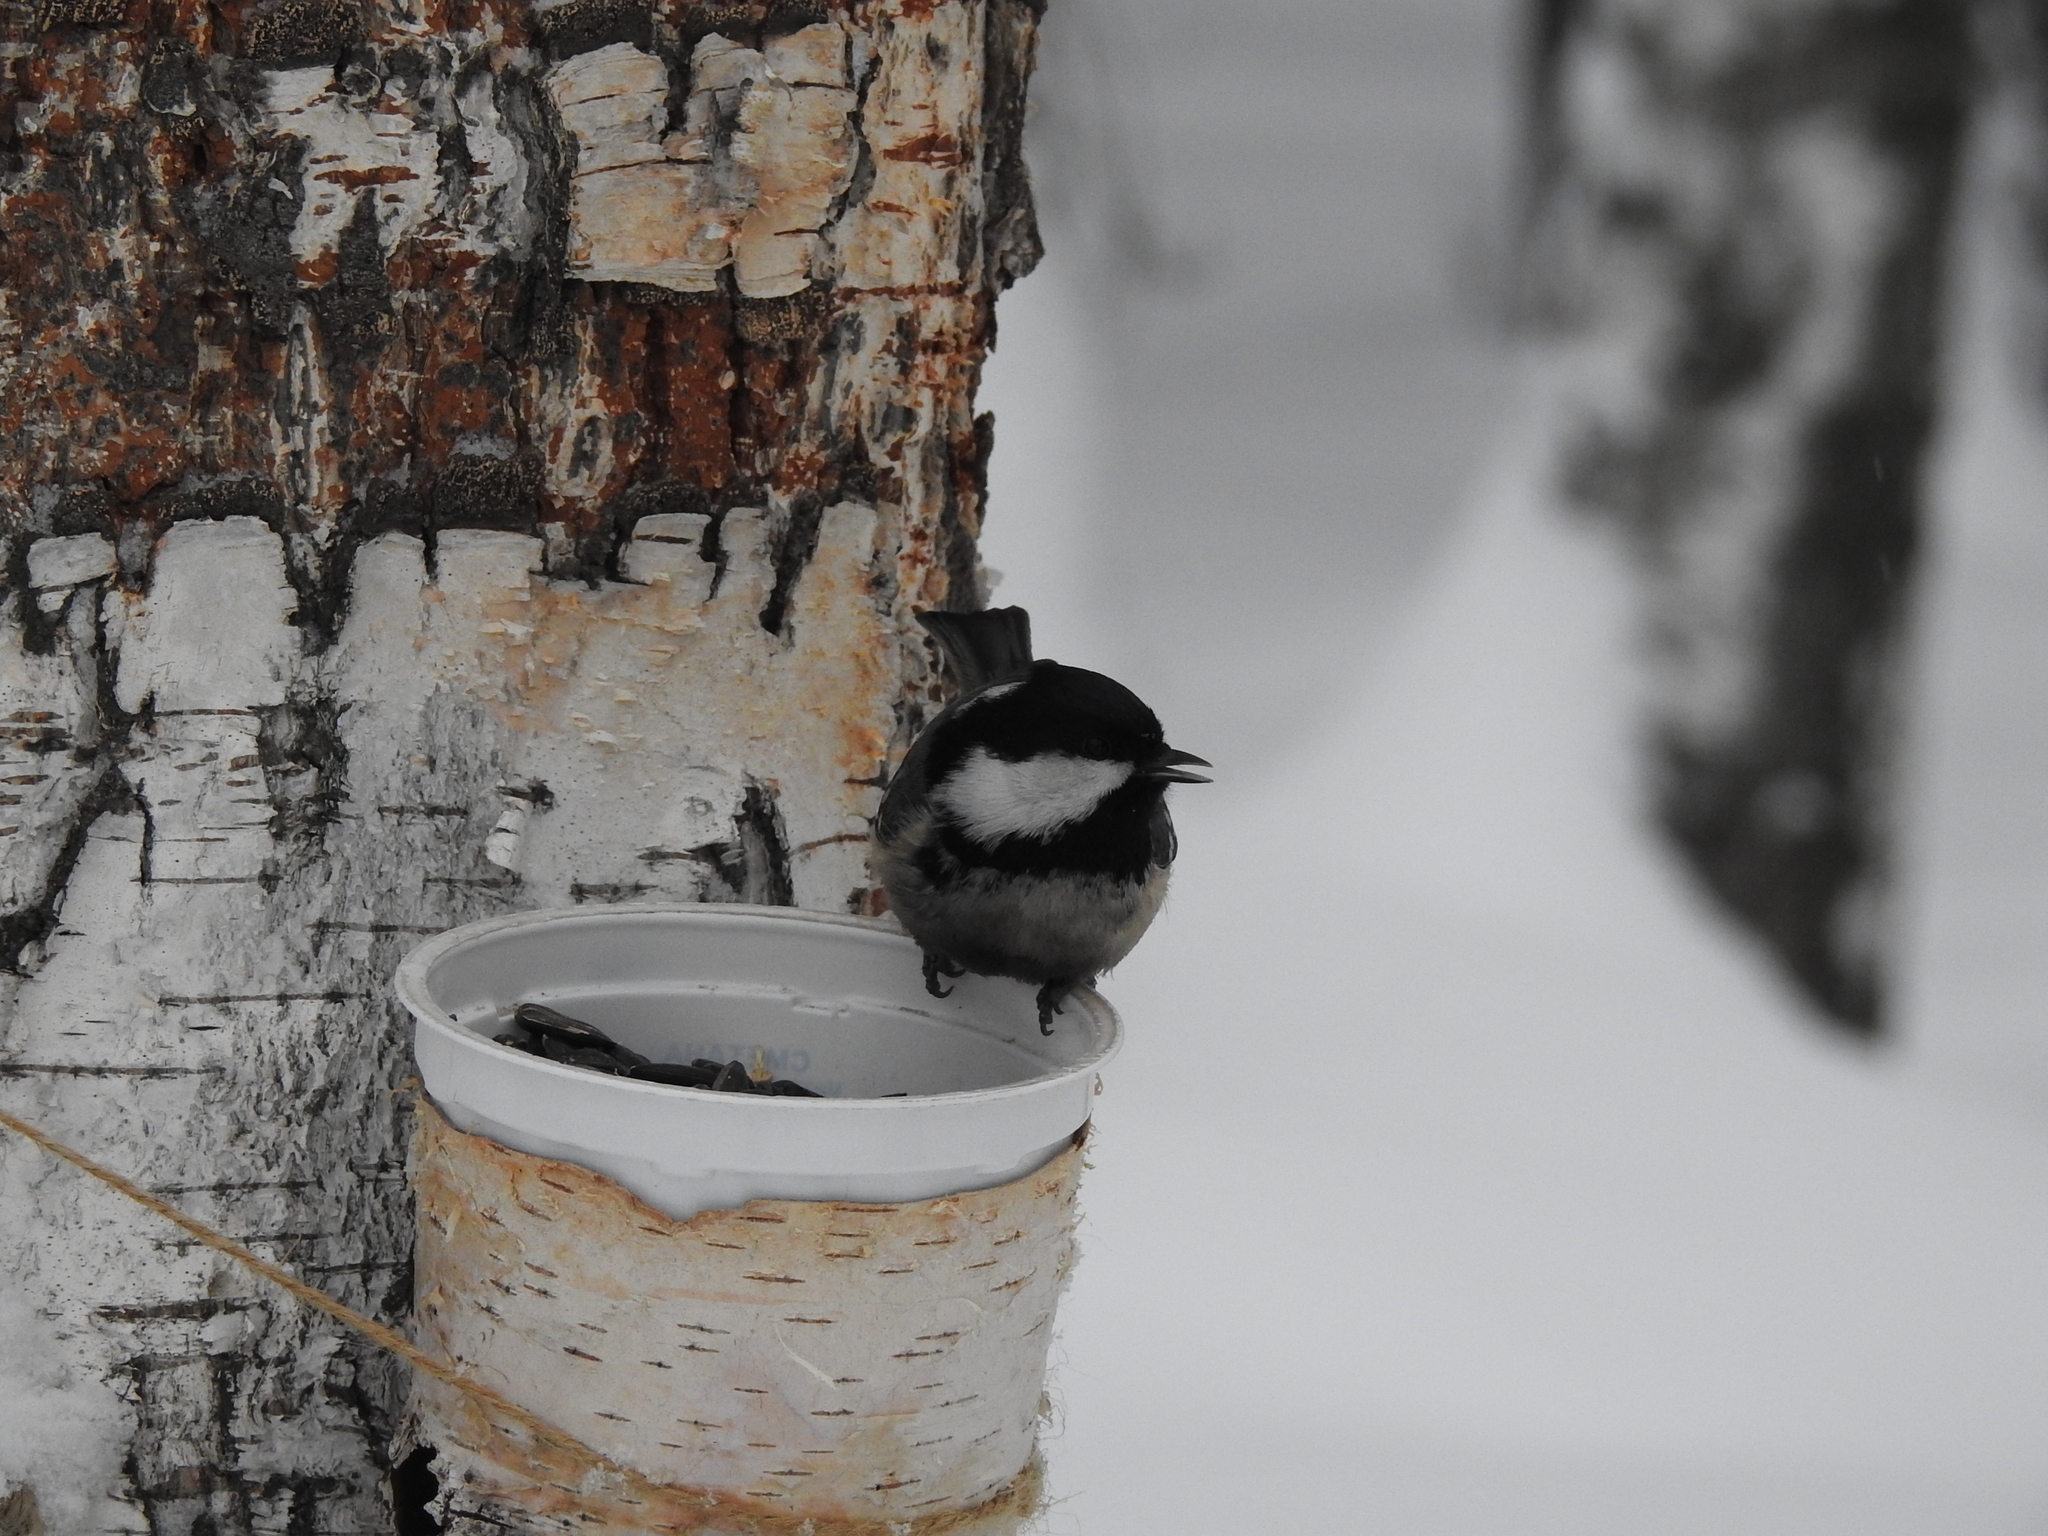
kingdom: Animalia
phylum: Chordata
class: Aves
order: Passeriformes
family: Paridae
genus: Periparus
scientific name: Periparus ater
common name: Coal tit
